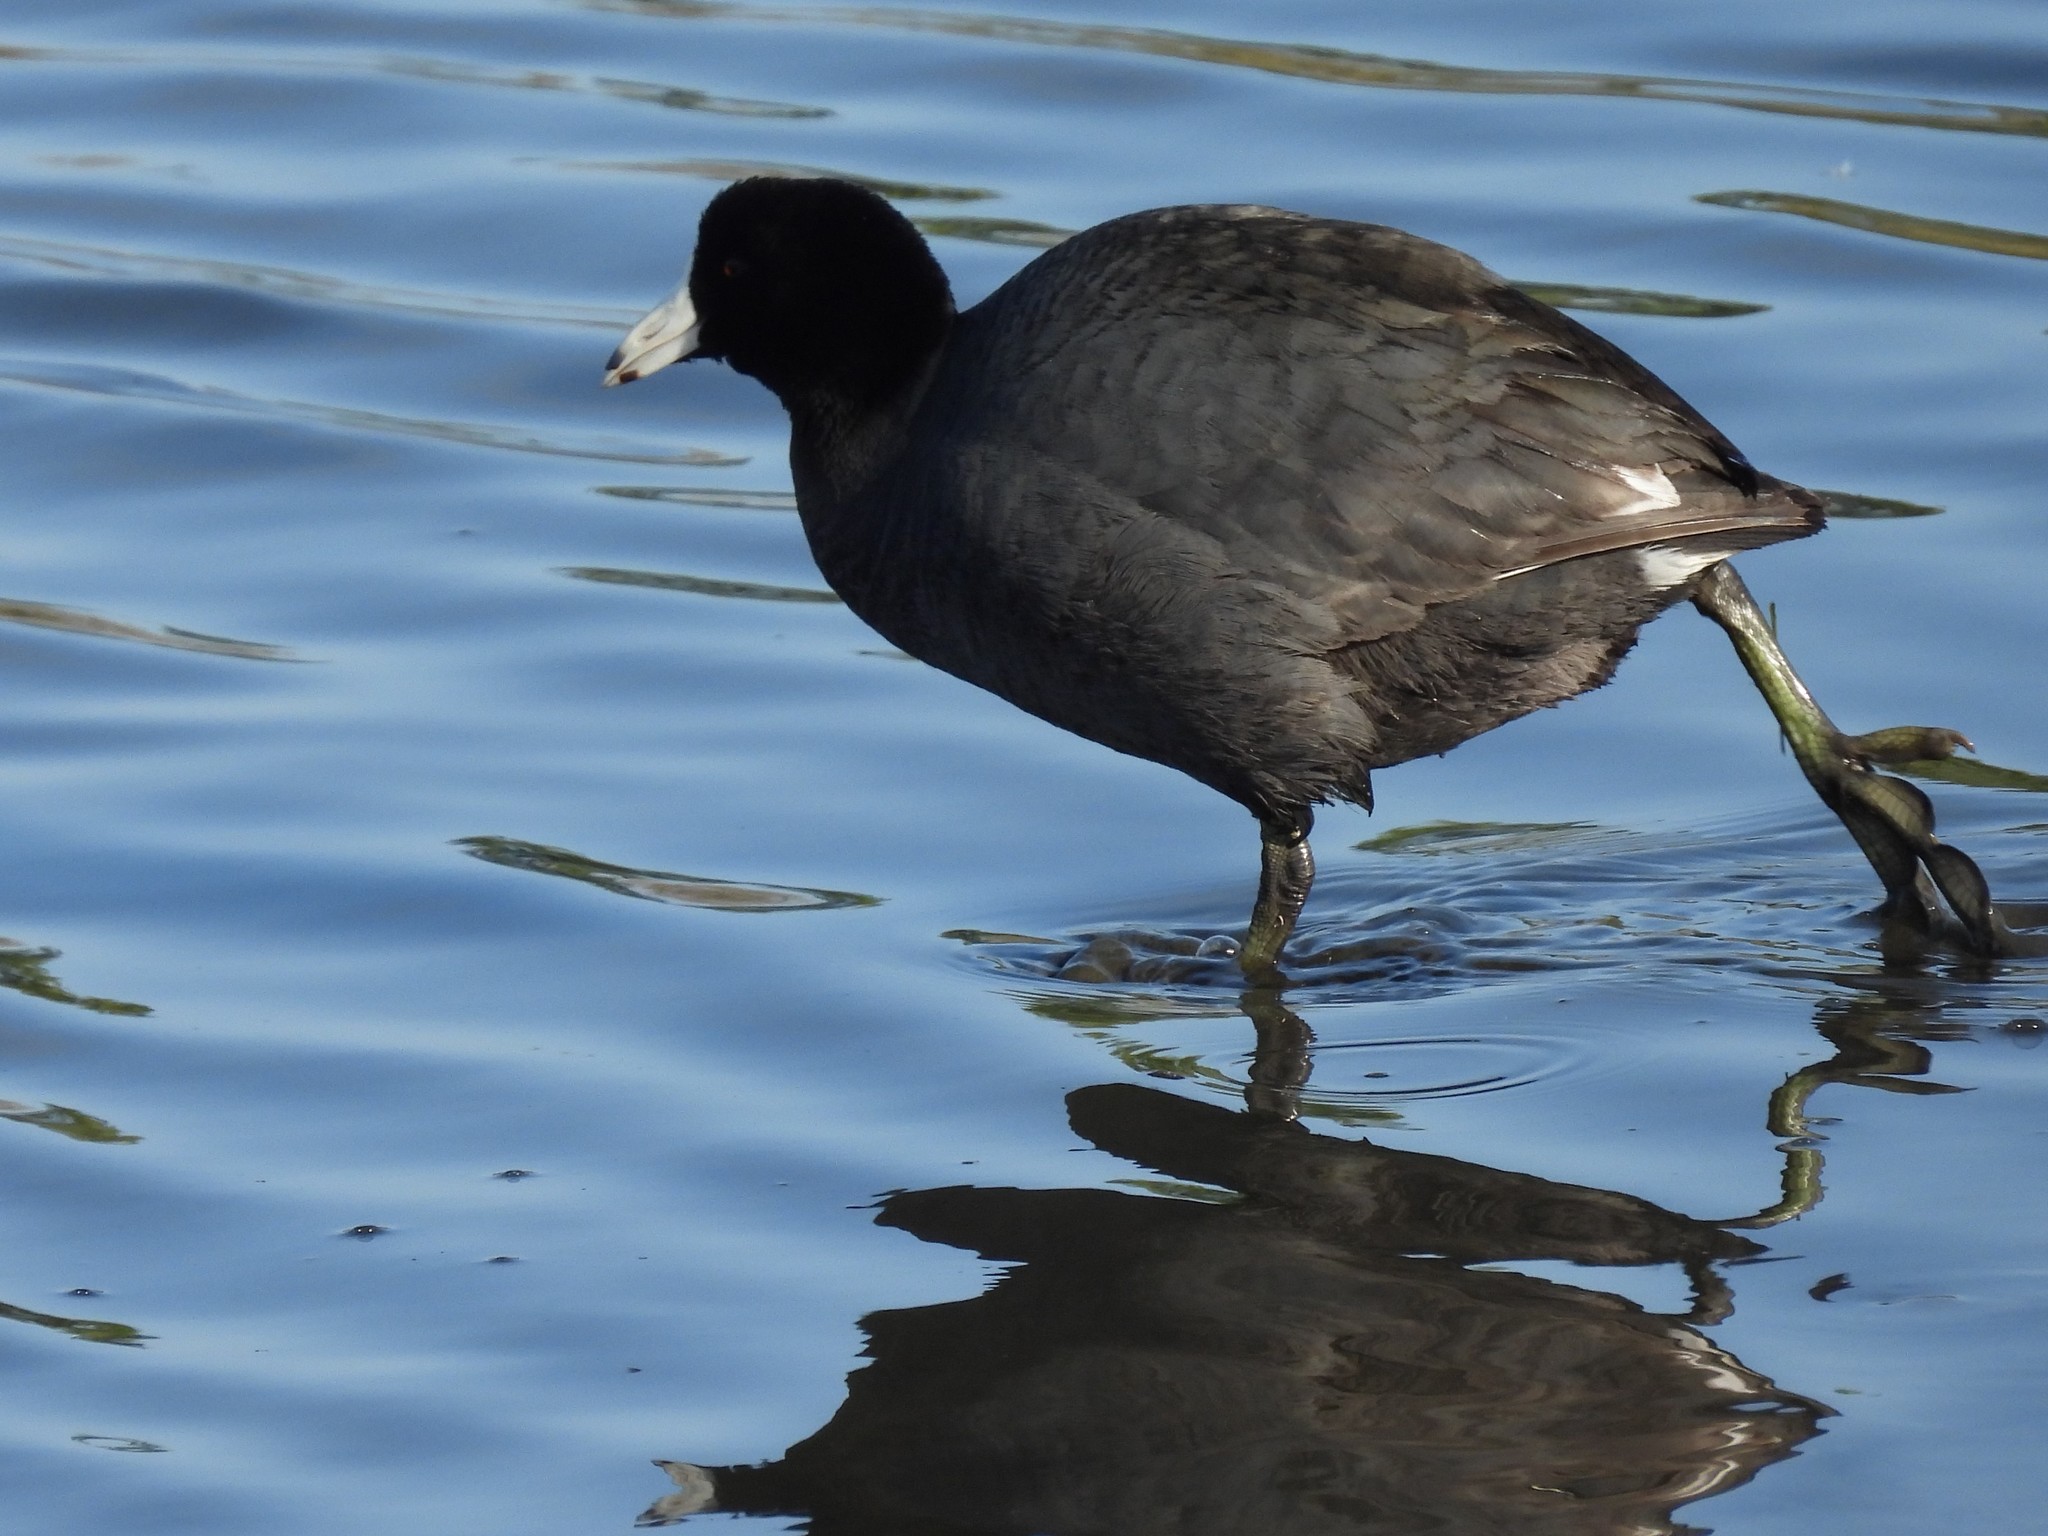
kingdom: Animalia
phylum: Chordata
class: Aves
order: Gruiformes
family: Rallidae
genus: Fulica
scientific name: Fulica americana
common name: American coot
